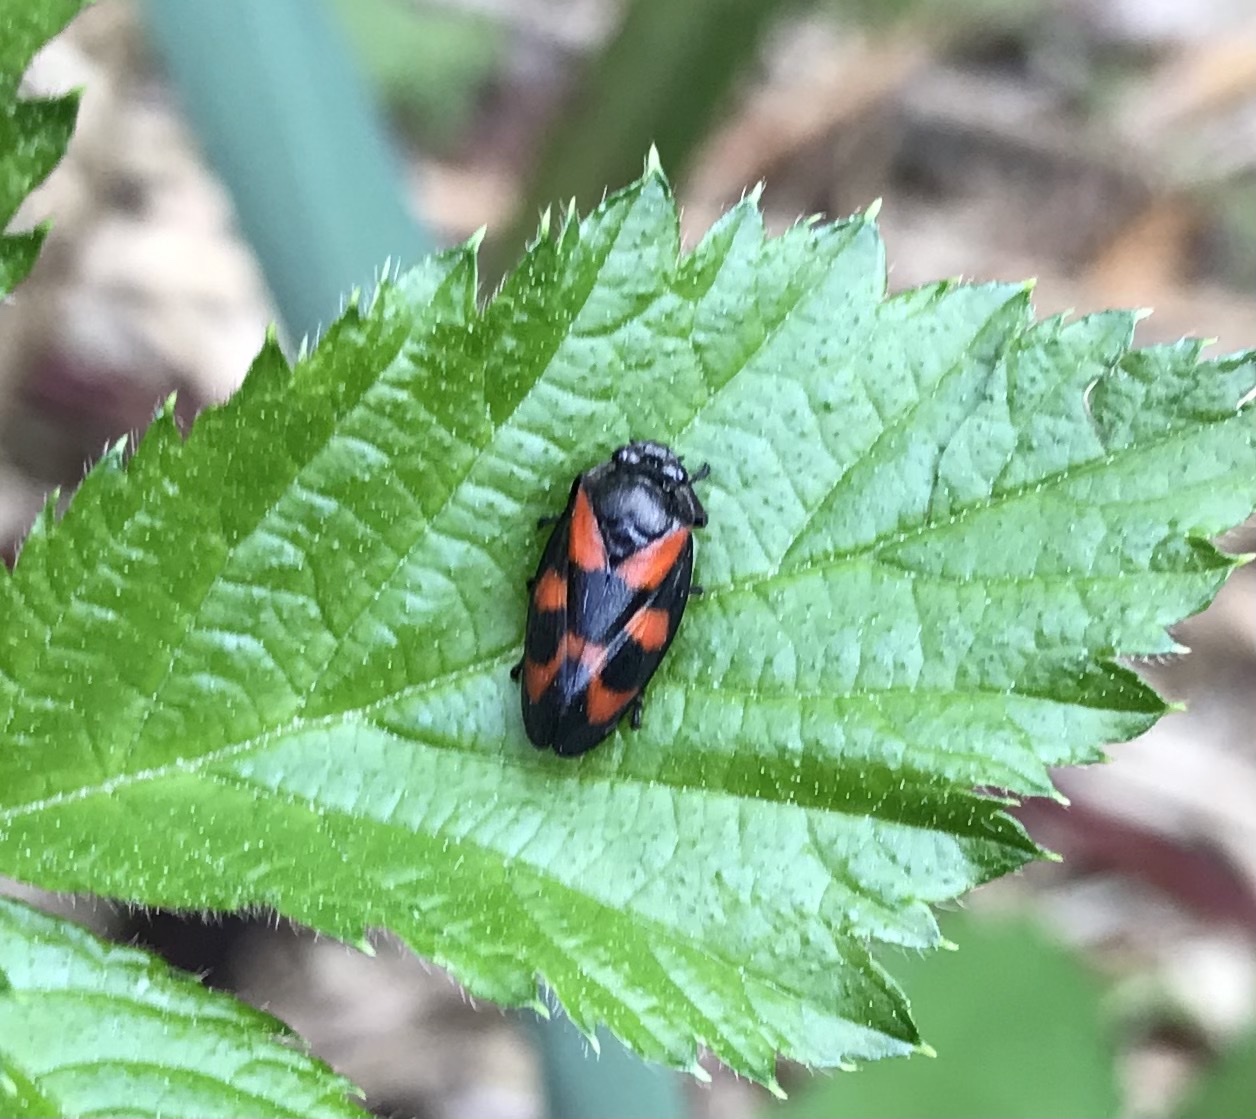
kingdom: Animalia
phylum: Arthropoda
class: Insecta
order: Hemiptera
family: Cercopidae
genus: Cercopis
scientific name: Cercopis vulnerata
